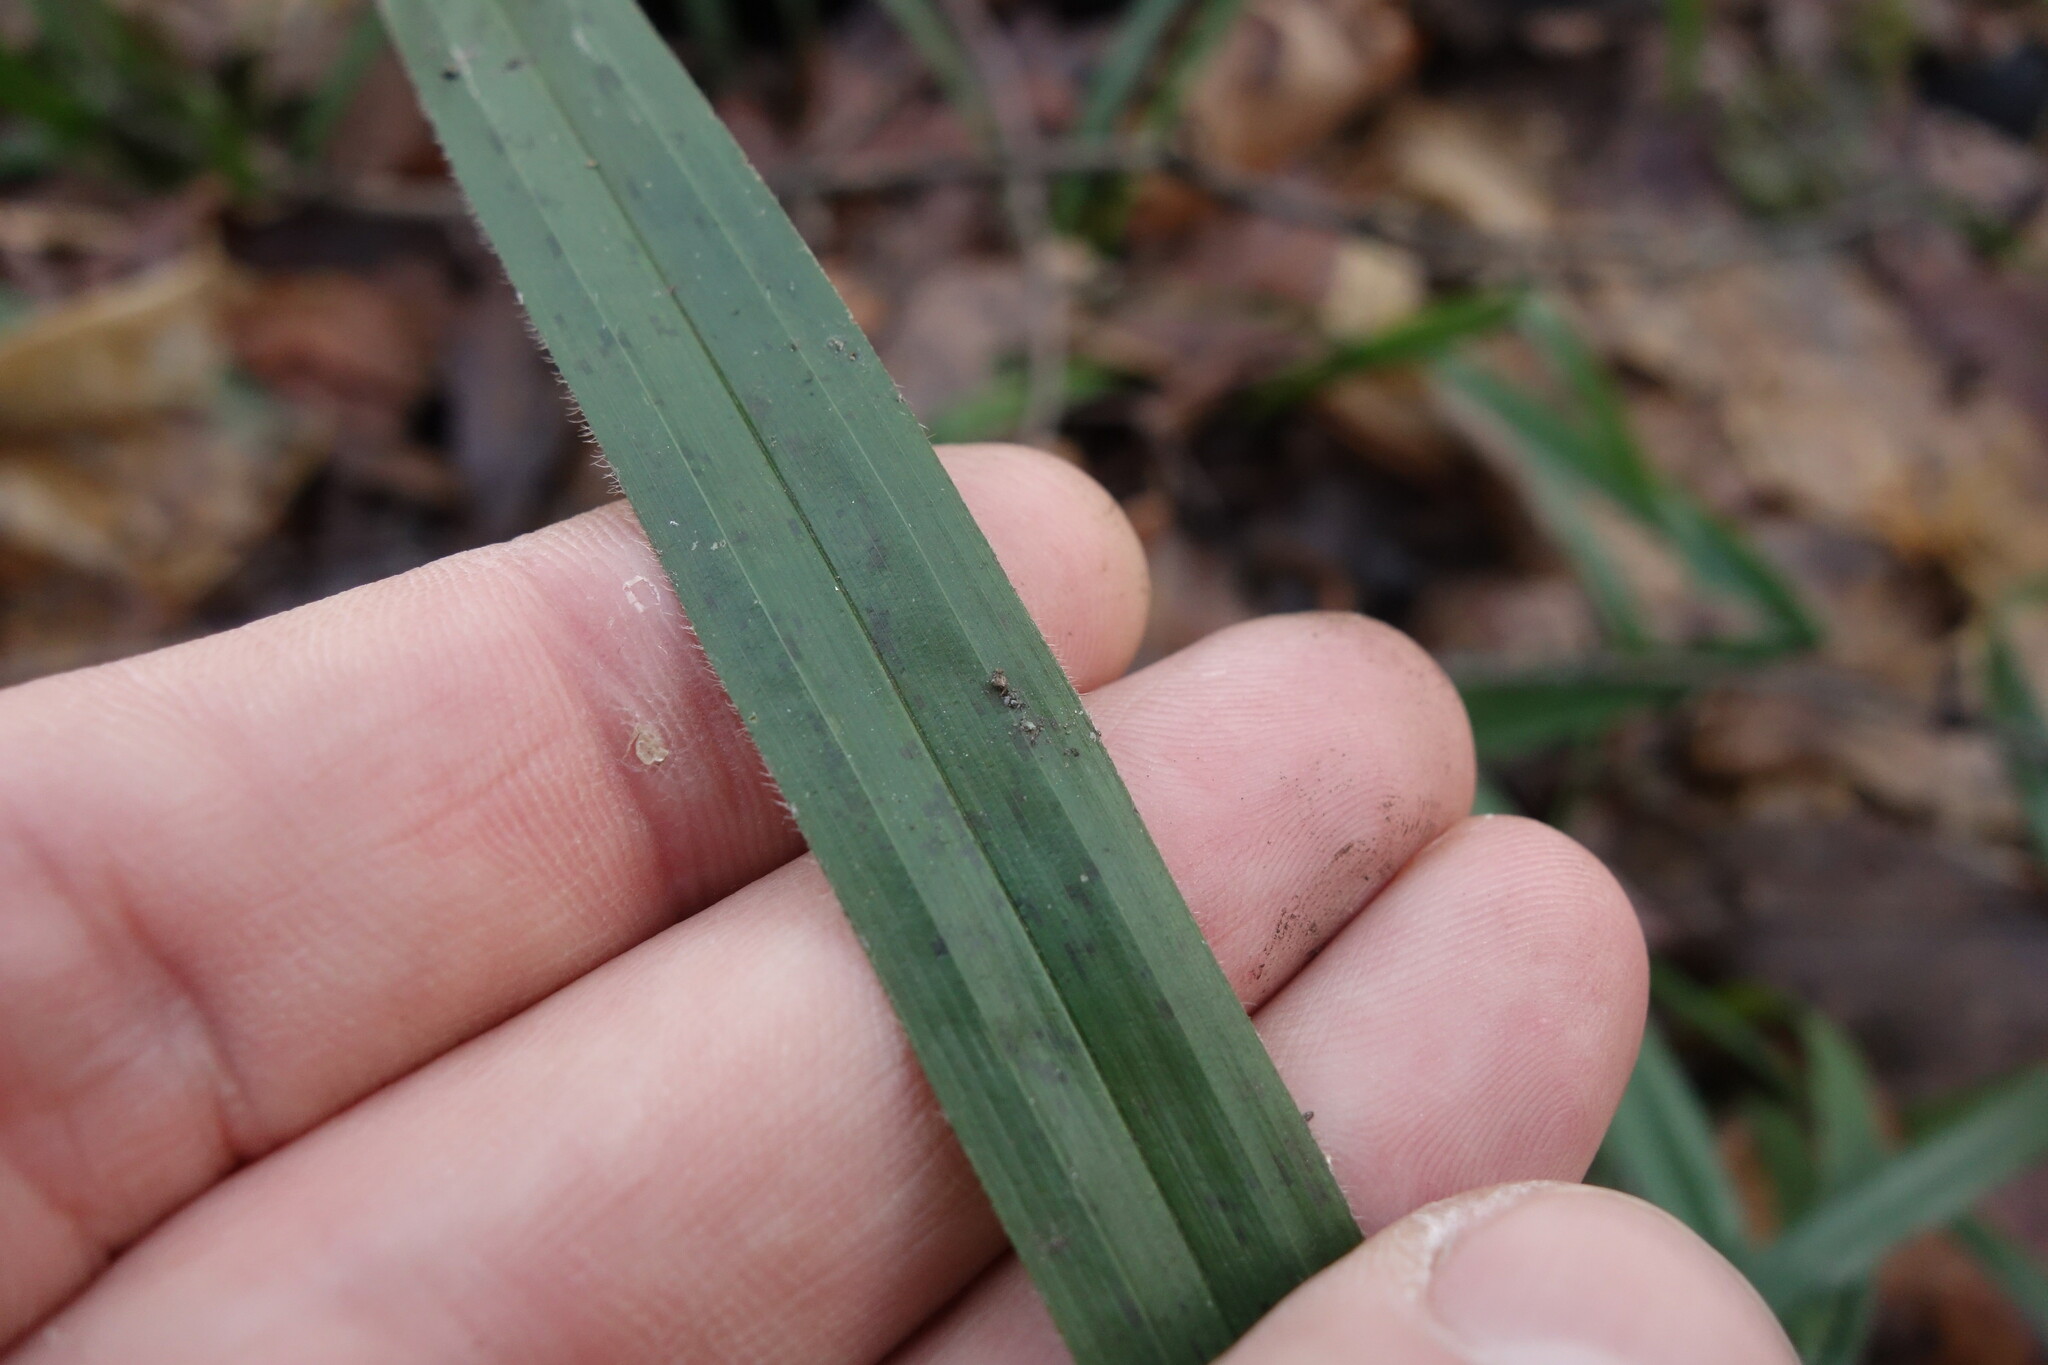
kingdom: Plantae
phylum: Tracheophyta
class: Liliopsida
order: Poales
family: Cyperaceae
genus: Carex
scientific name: Carex pilosa
